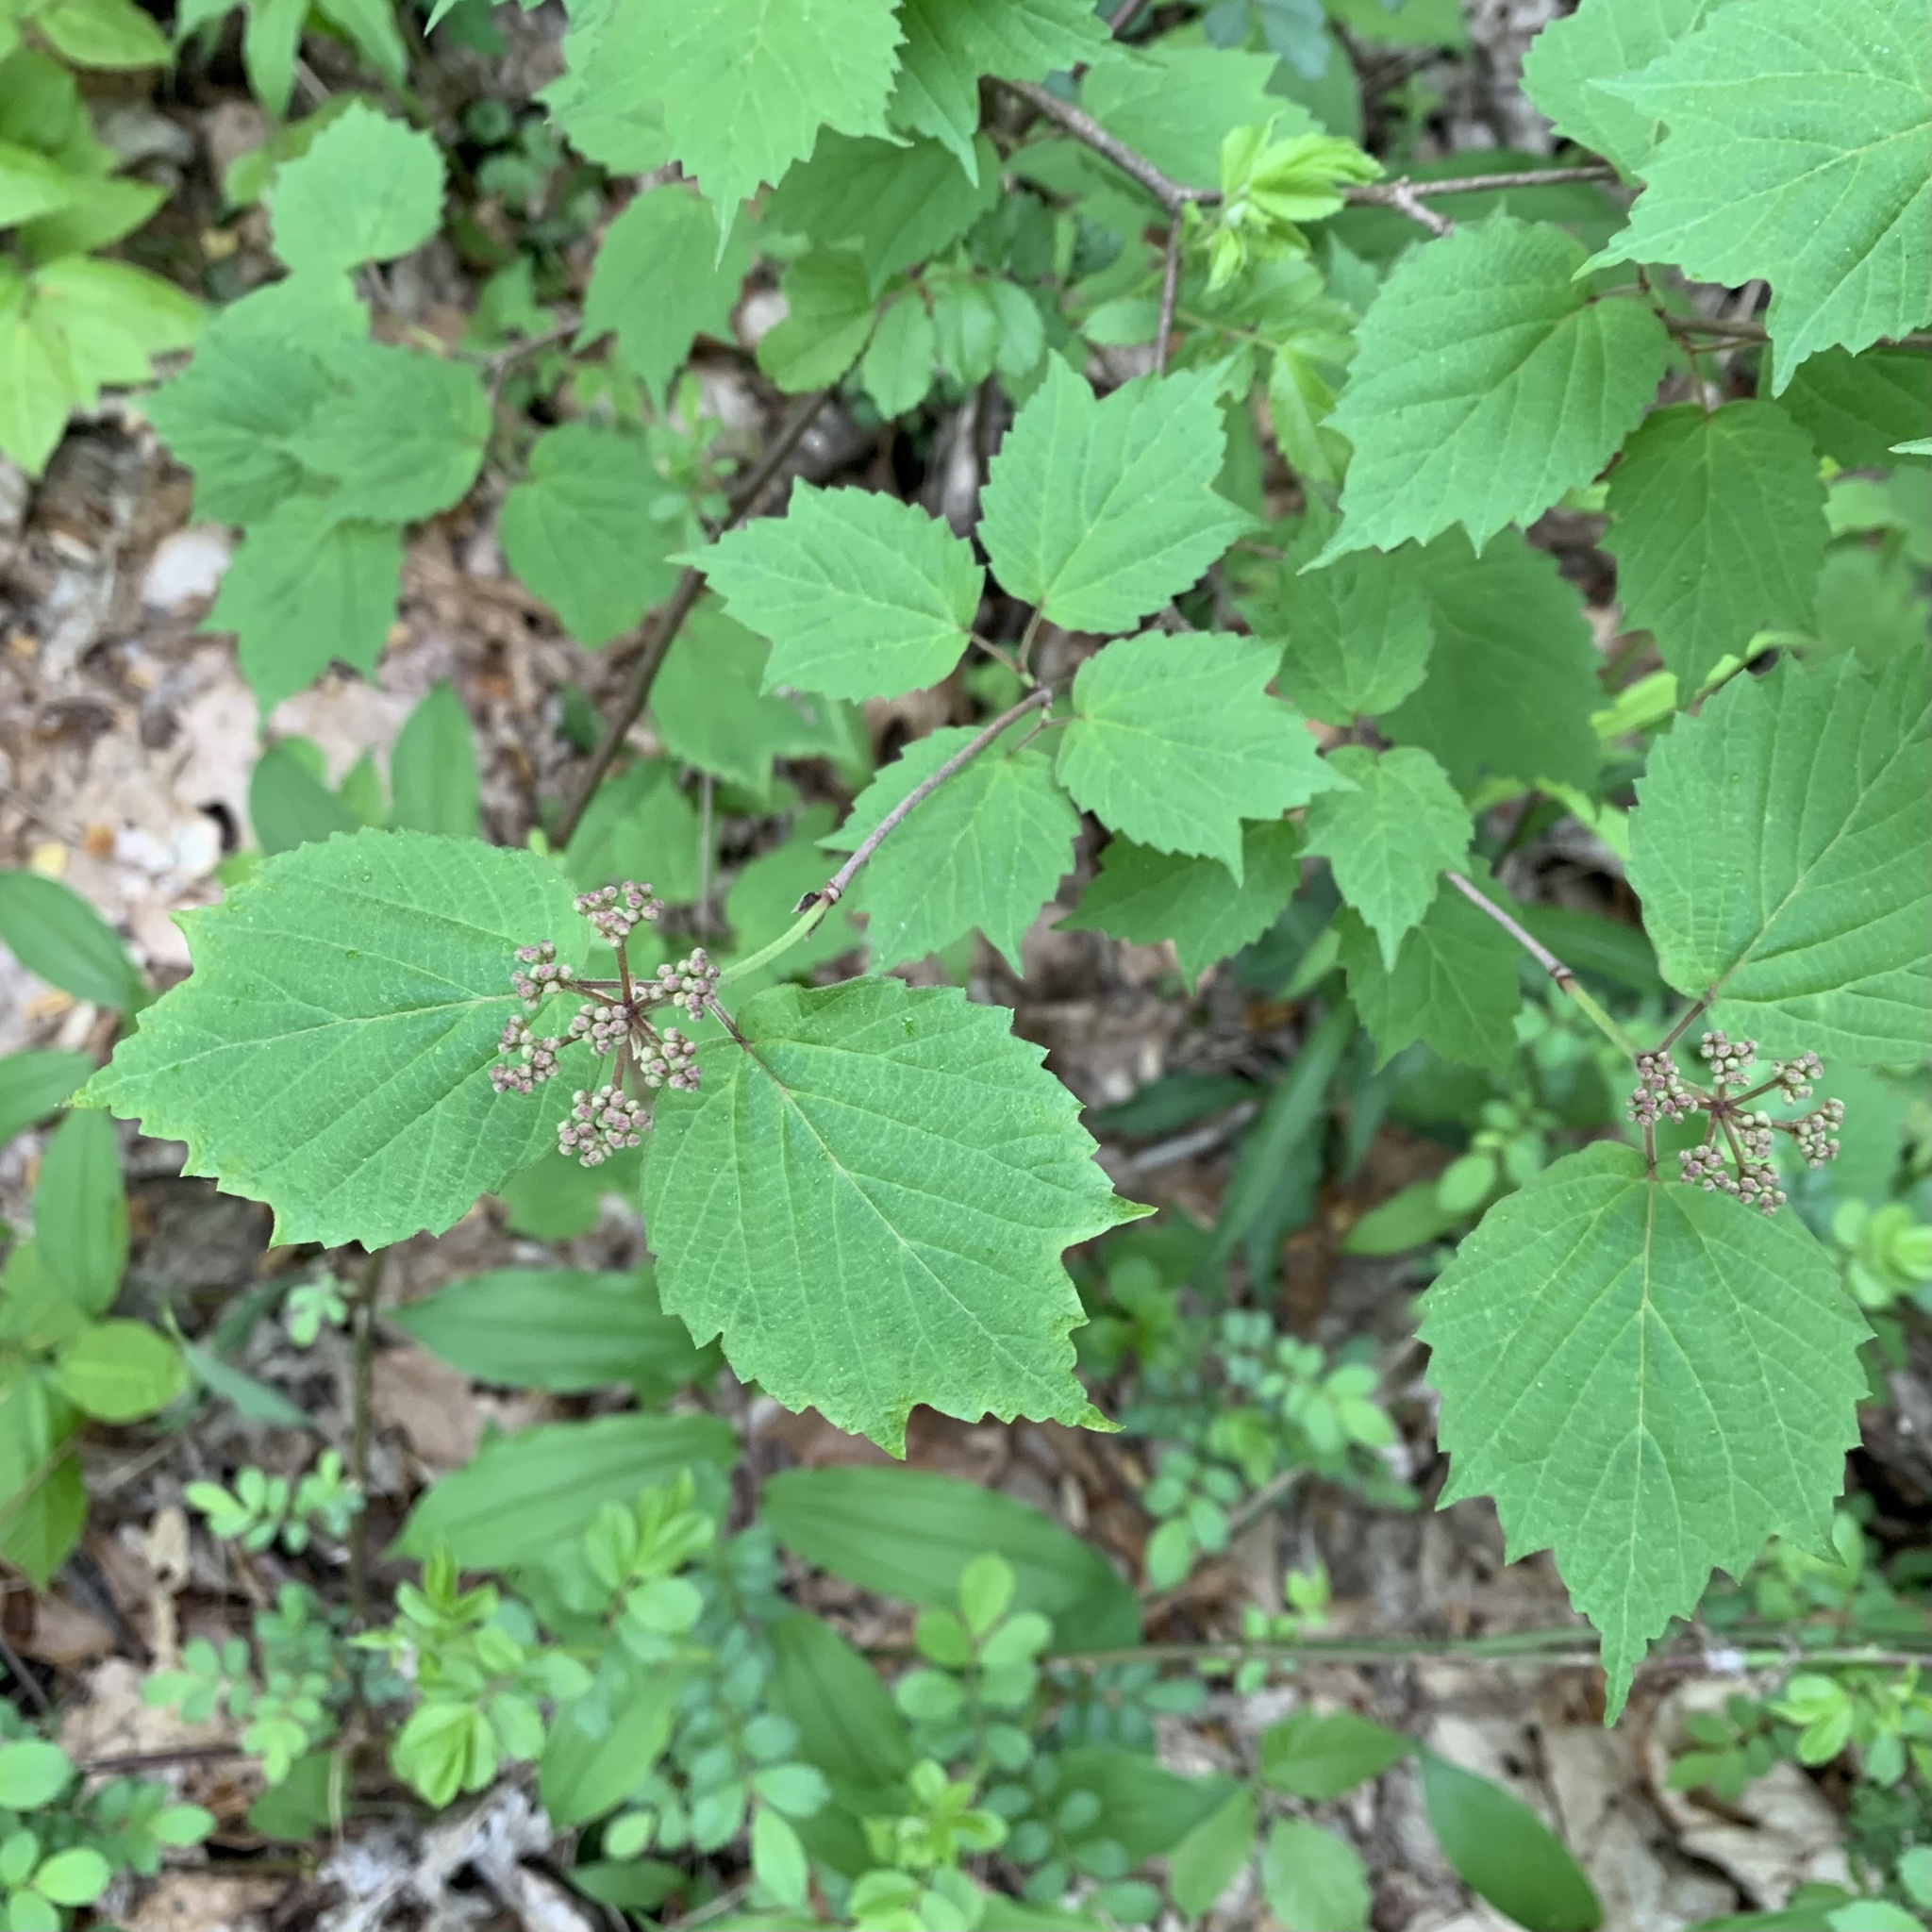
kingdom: Plantae
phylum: Tracheophyta
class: Magnoliopsida
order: Dipsacales
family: Viburnaceae
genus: Viburnum
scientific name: Viburnum acerifolium
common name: Dockmackie
